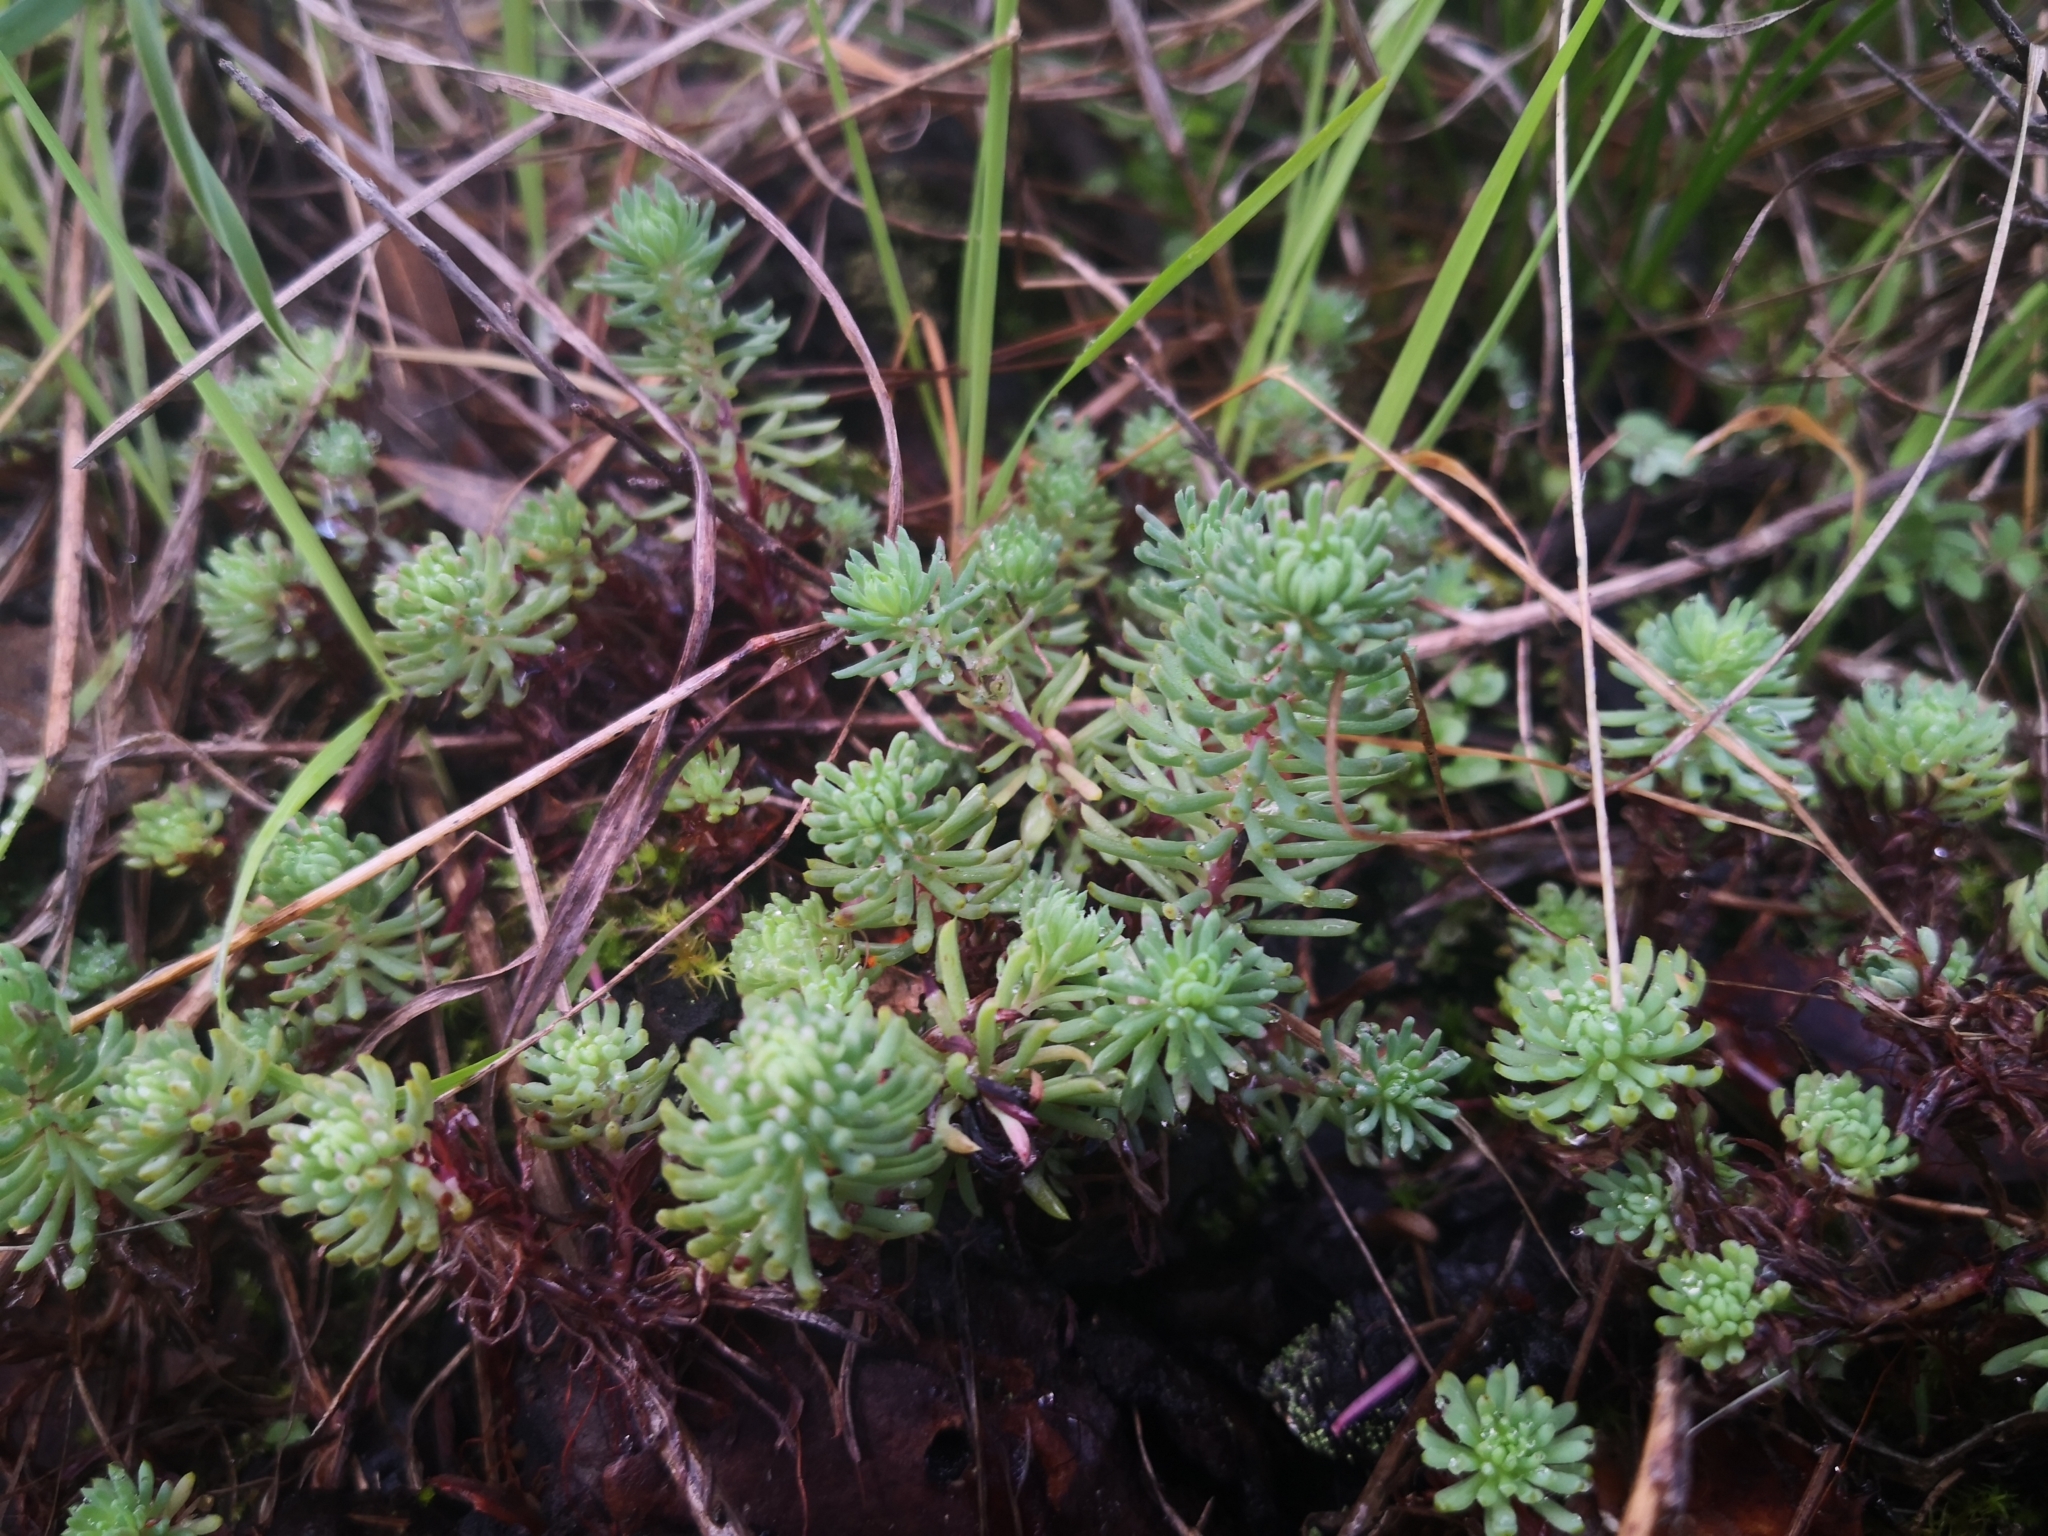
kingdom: Plantae
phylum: Tracheophyta
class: Magnoliopsida
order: Saxifragales
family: Crassulaceae
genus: Petrosedum
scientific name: Petrosedum forsterianum
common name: Forster's stonecrop
